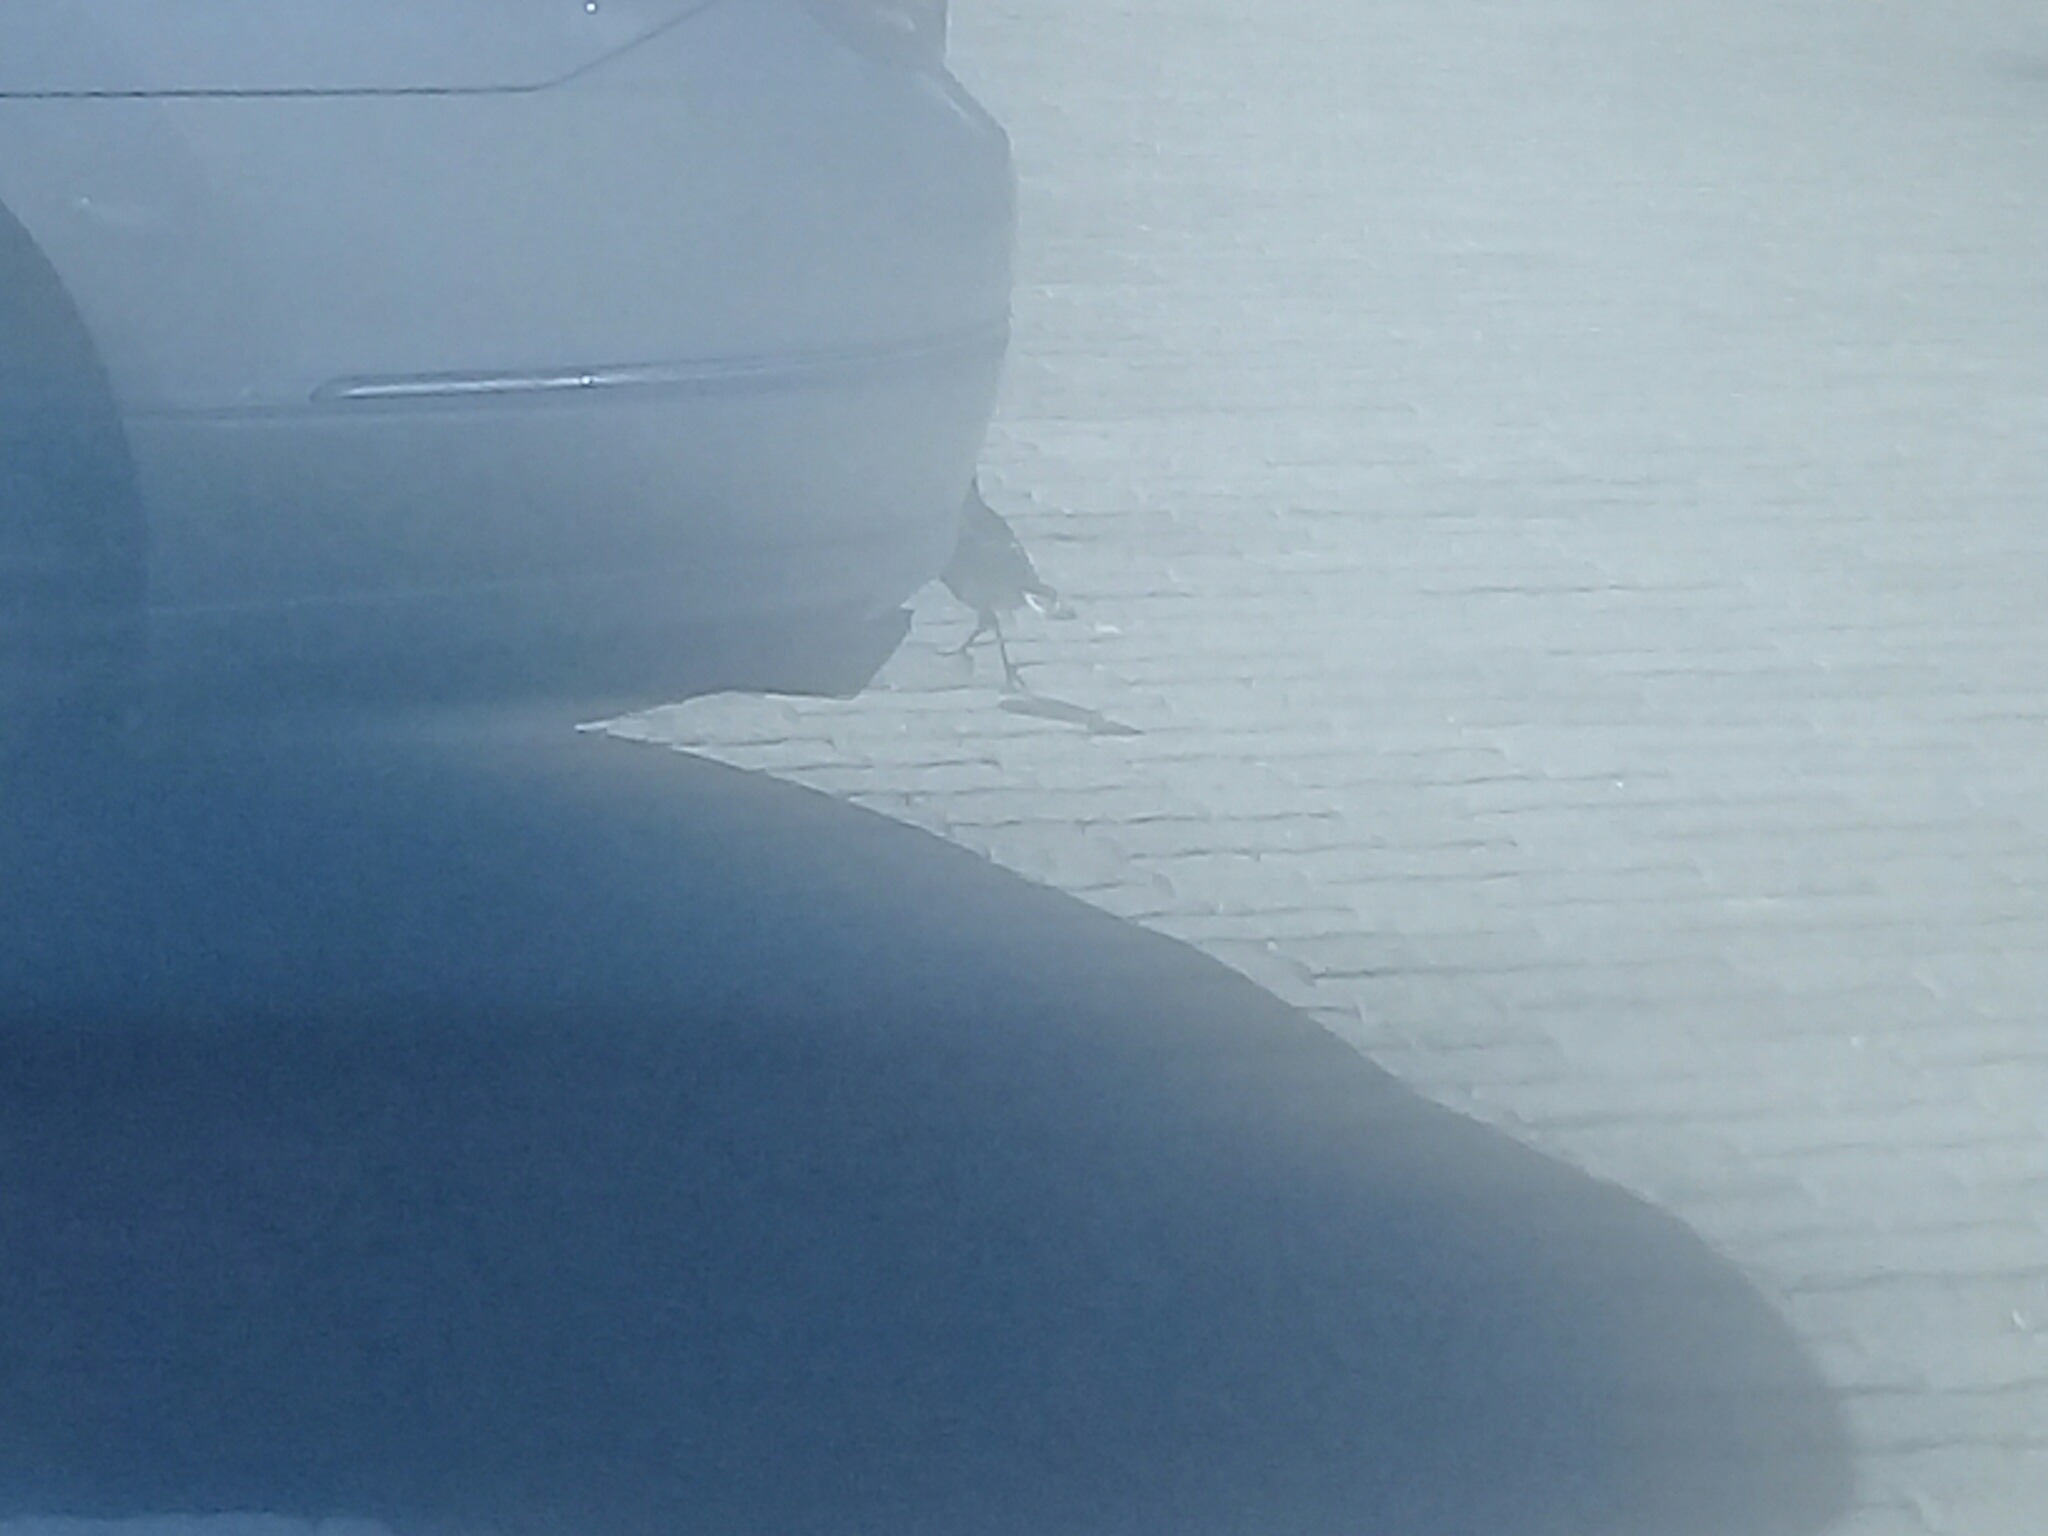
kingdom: Animalia
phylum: Chordata
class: Aves
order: Passeriformes
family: Sturnidae
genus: Lamprotornis
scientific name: Lamprotornis bicolor
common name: Pied starling
